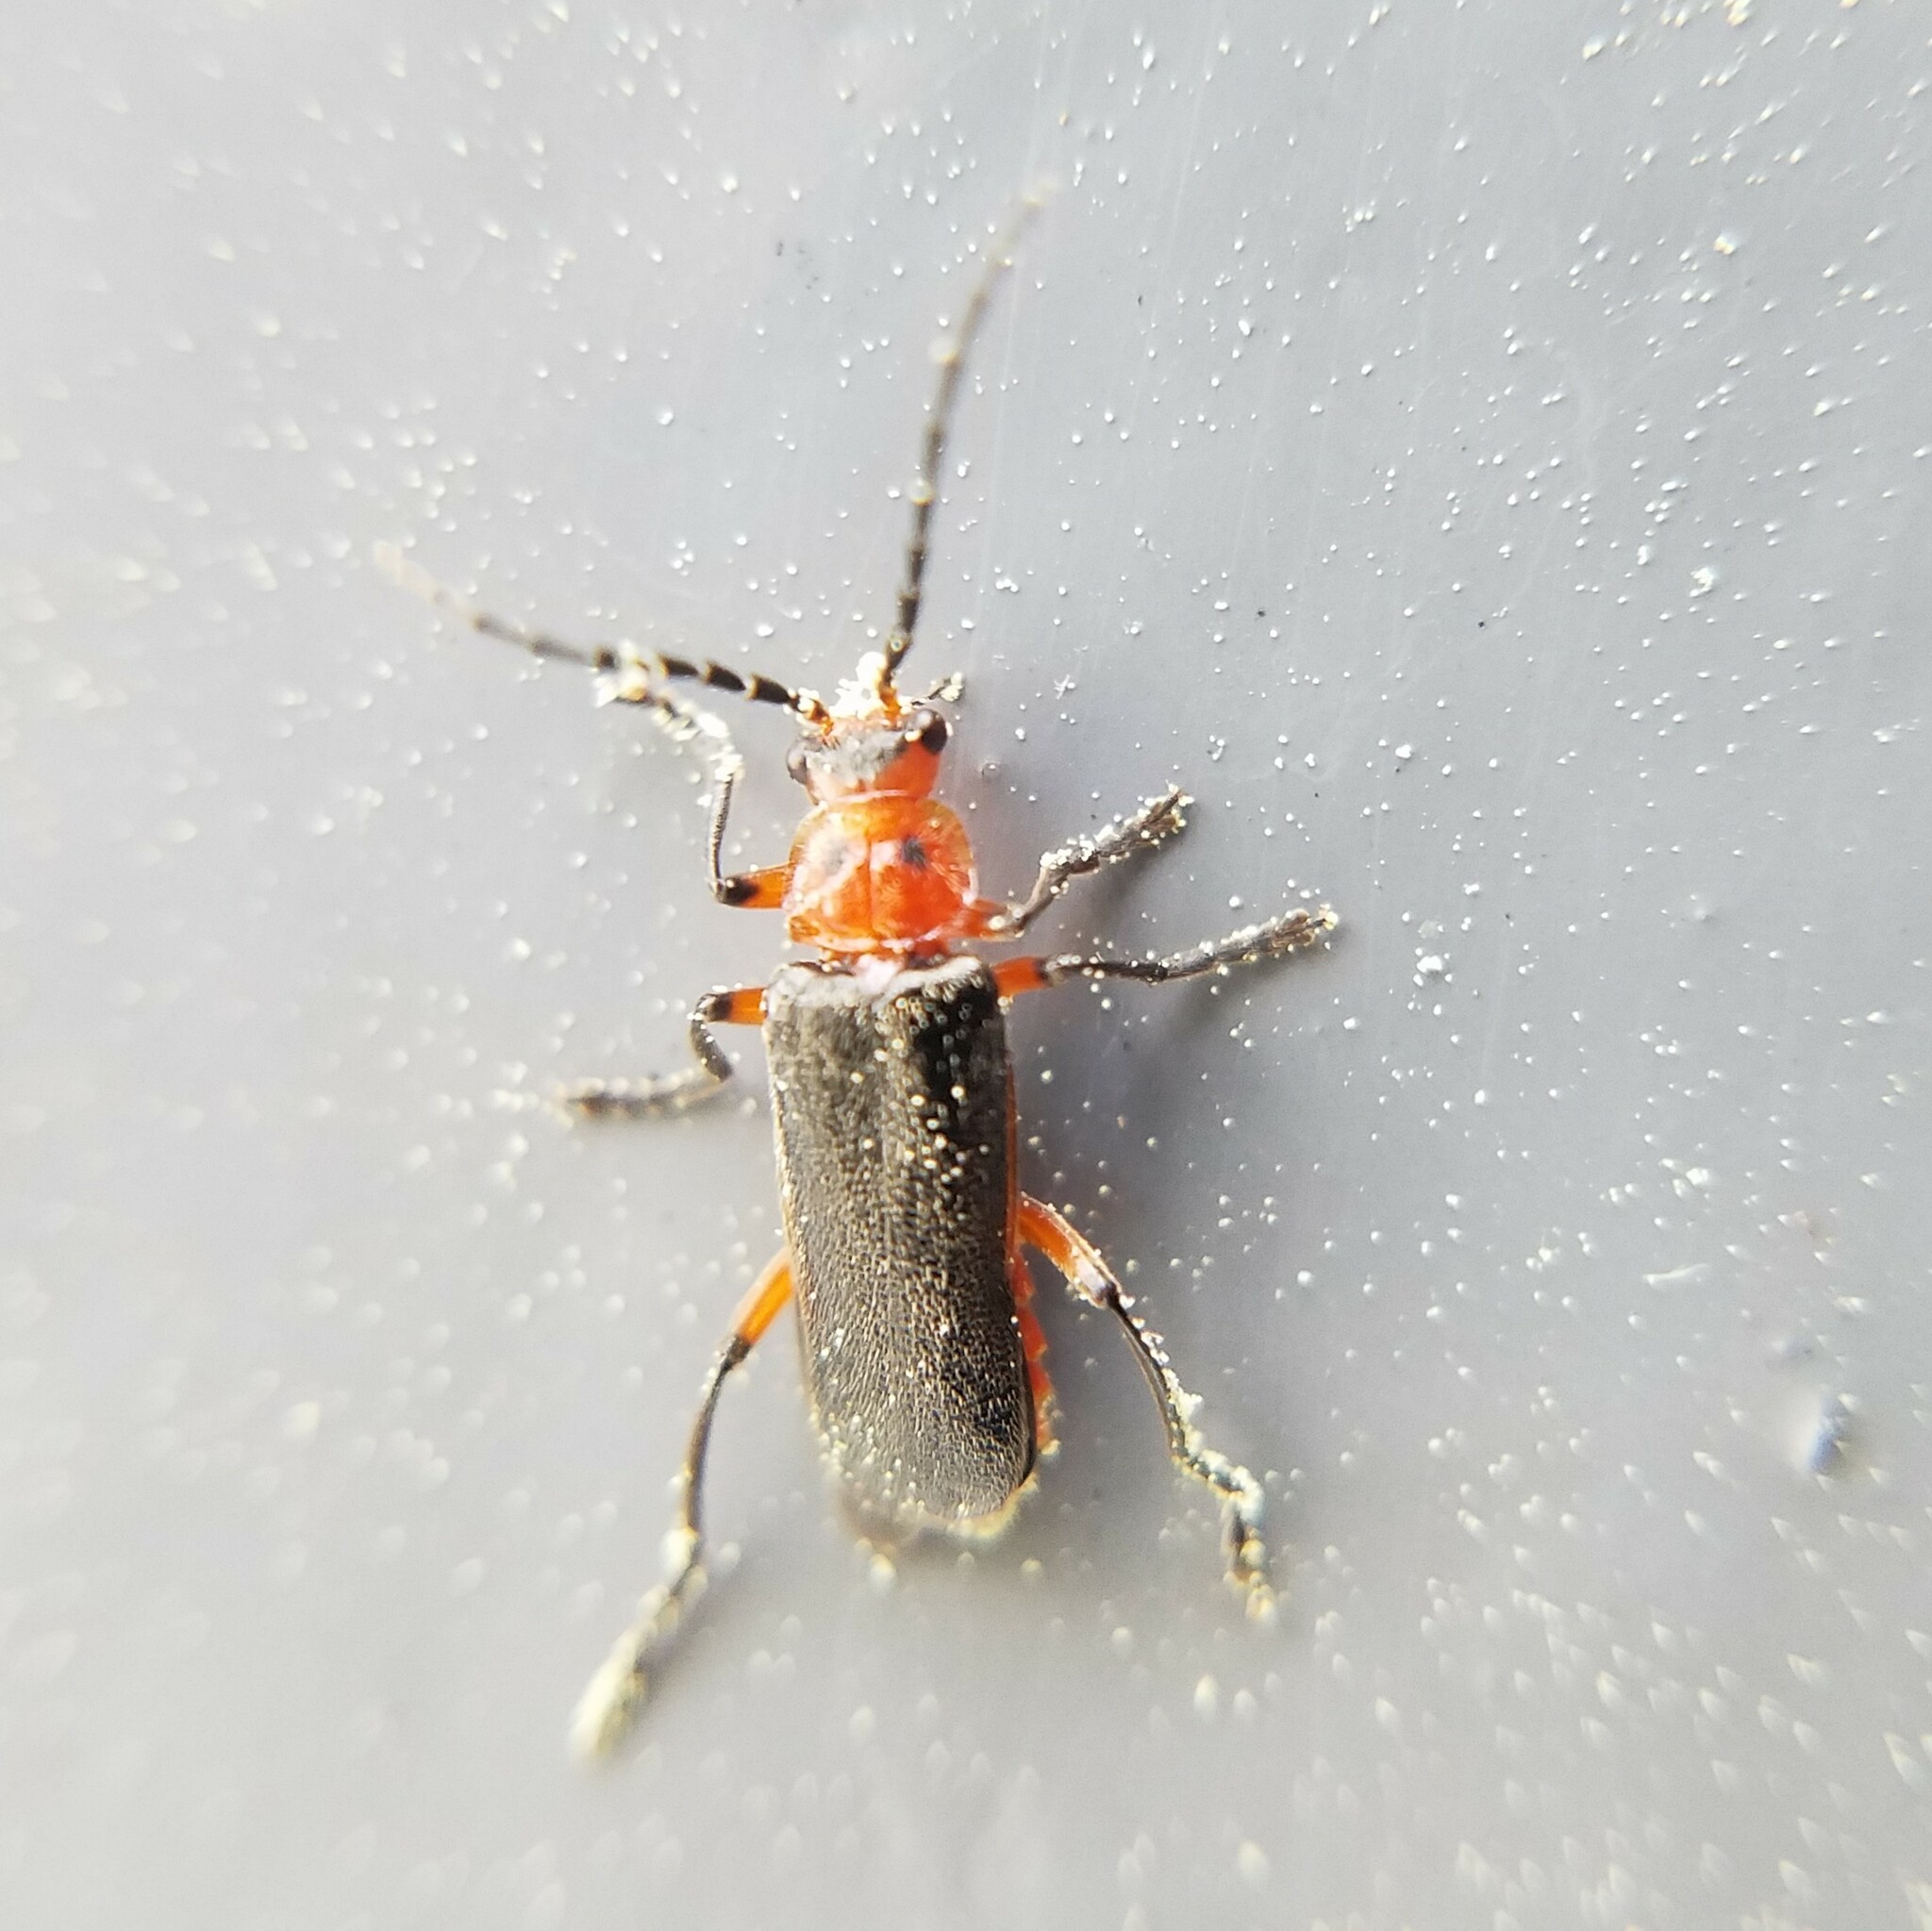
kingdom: Animalia
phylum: Arthropoda
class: Insecta
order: Coleoptera
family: Cantharidae
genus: Atalantycha
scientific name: Atalantycha bilineata
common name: Two-lined leatherwing
